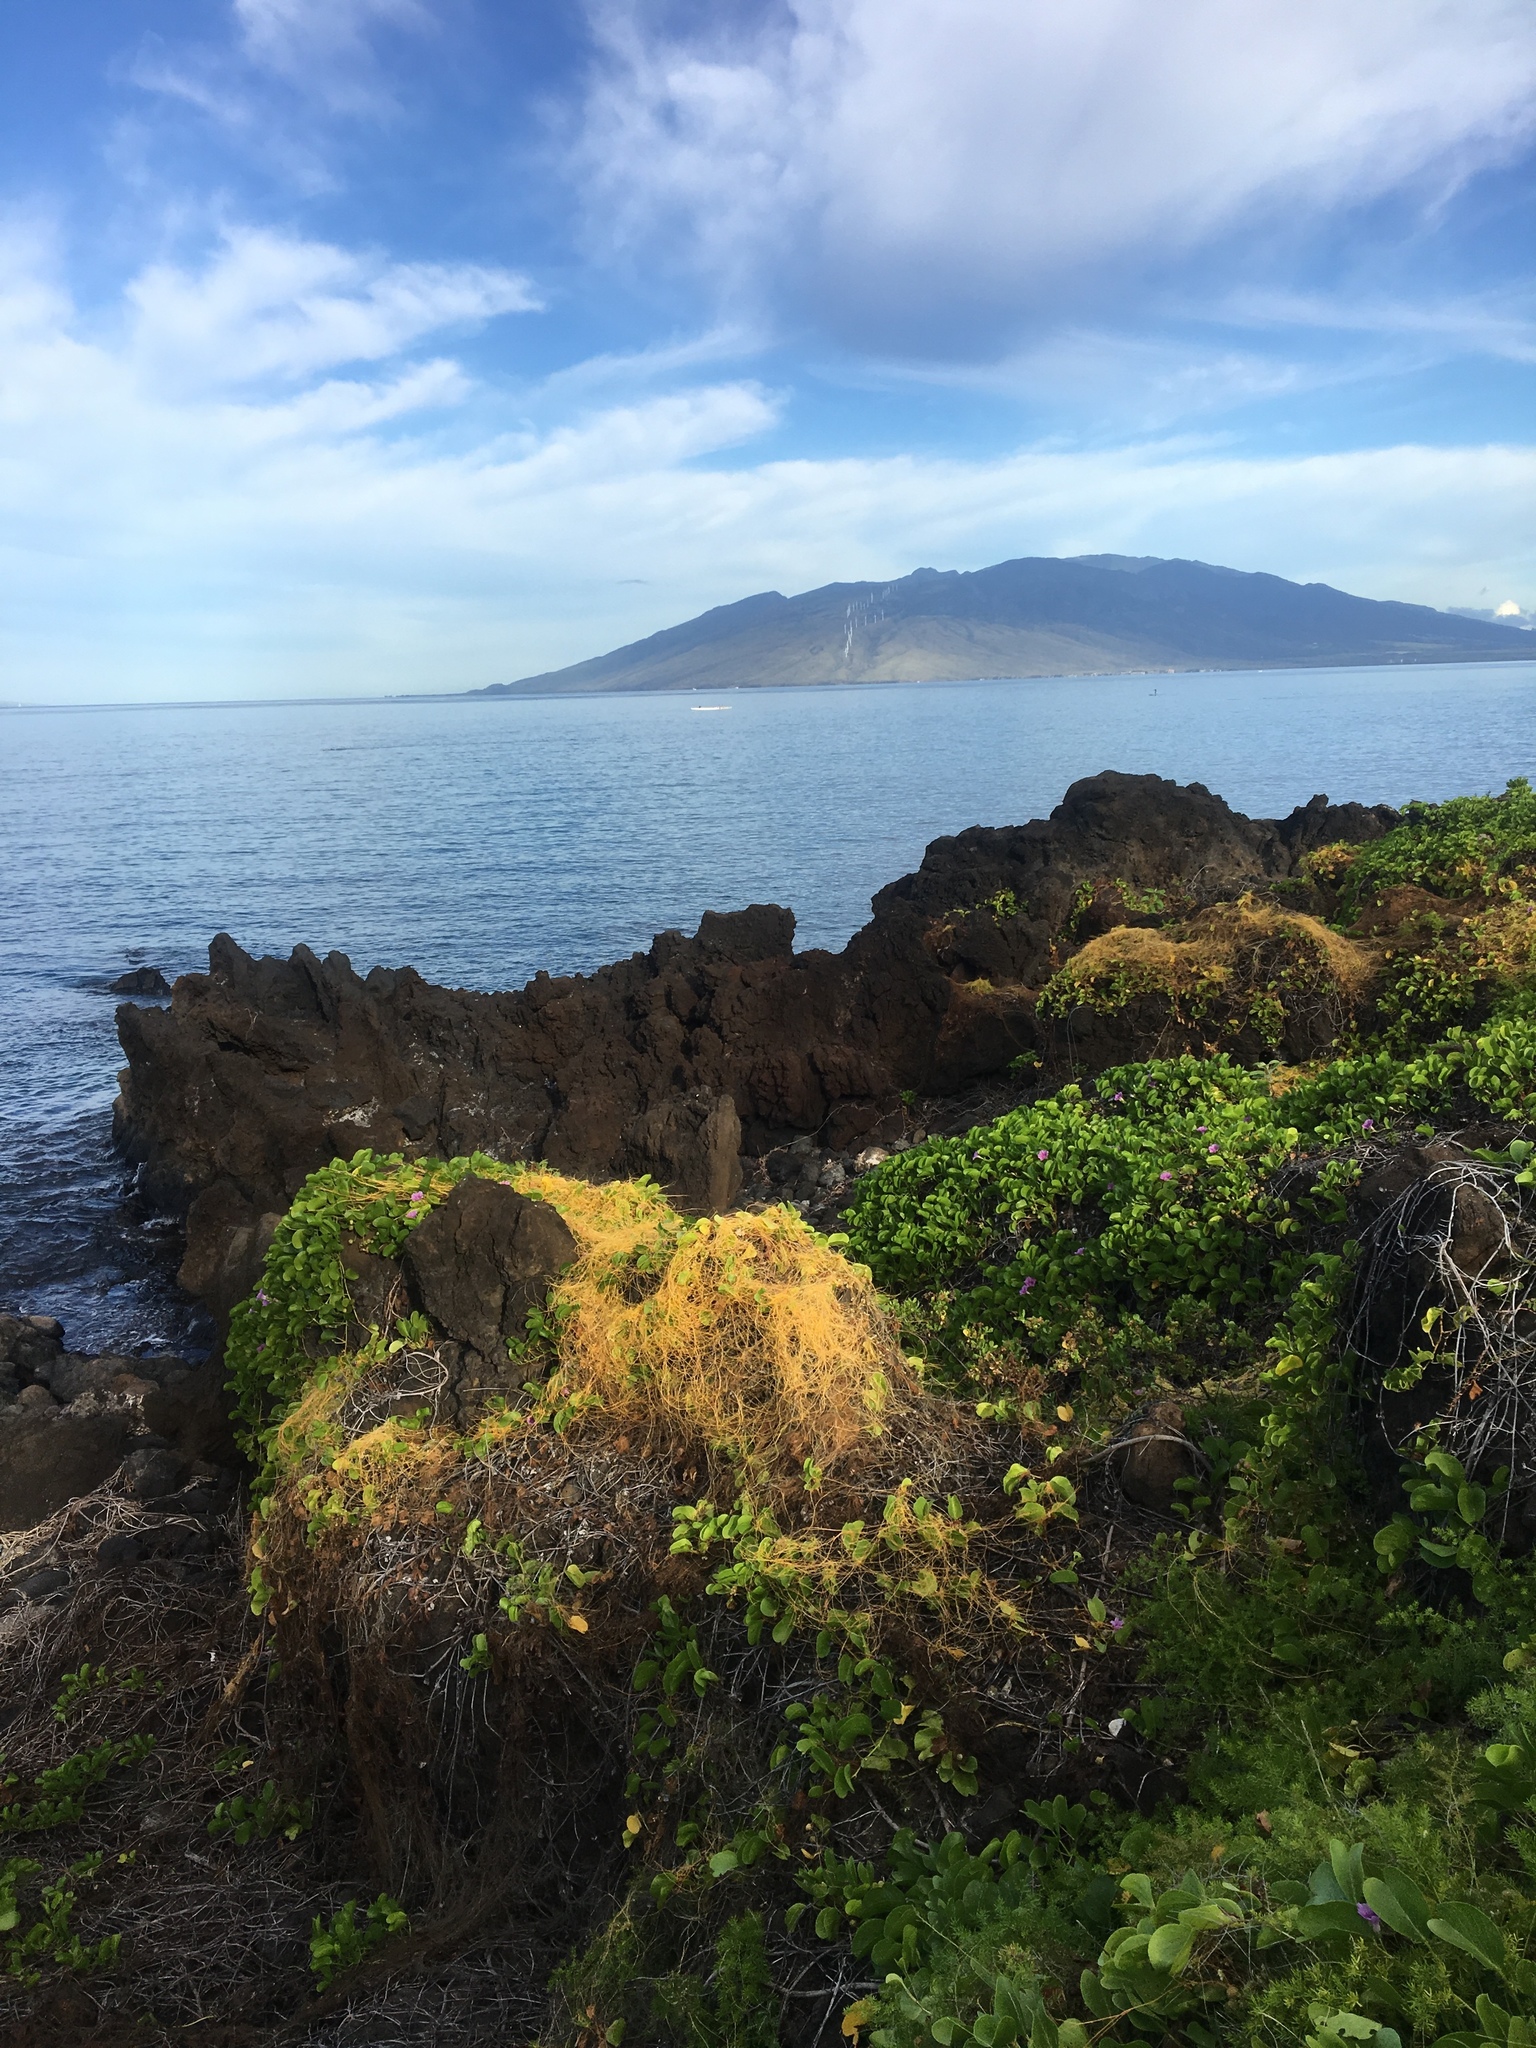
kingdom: Plantae
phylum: Tracheophyta
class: Magnoliopsida
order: Solanales
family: Convolvulaceae
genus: Cuscuta
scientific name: Cuscuta sandwichiana
